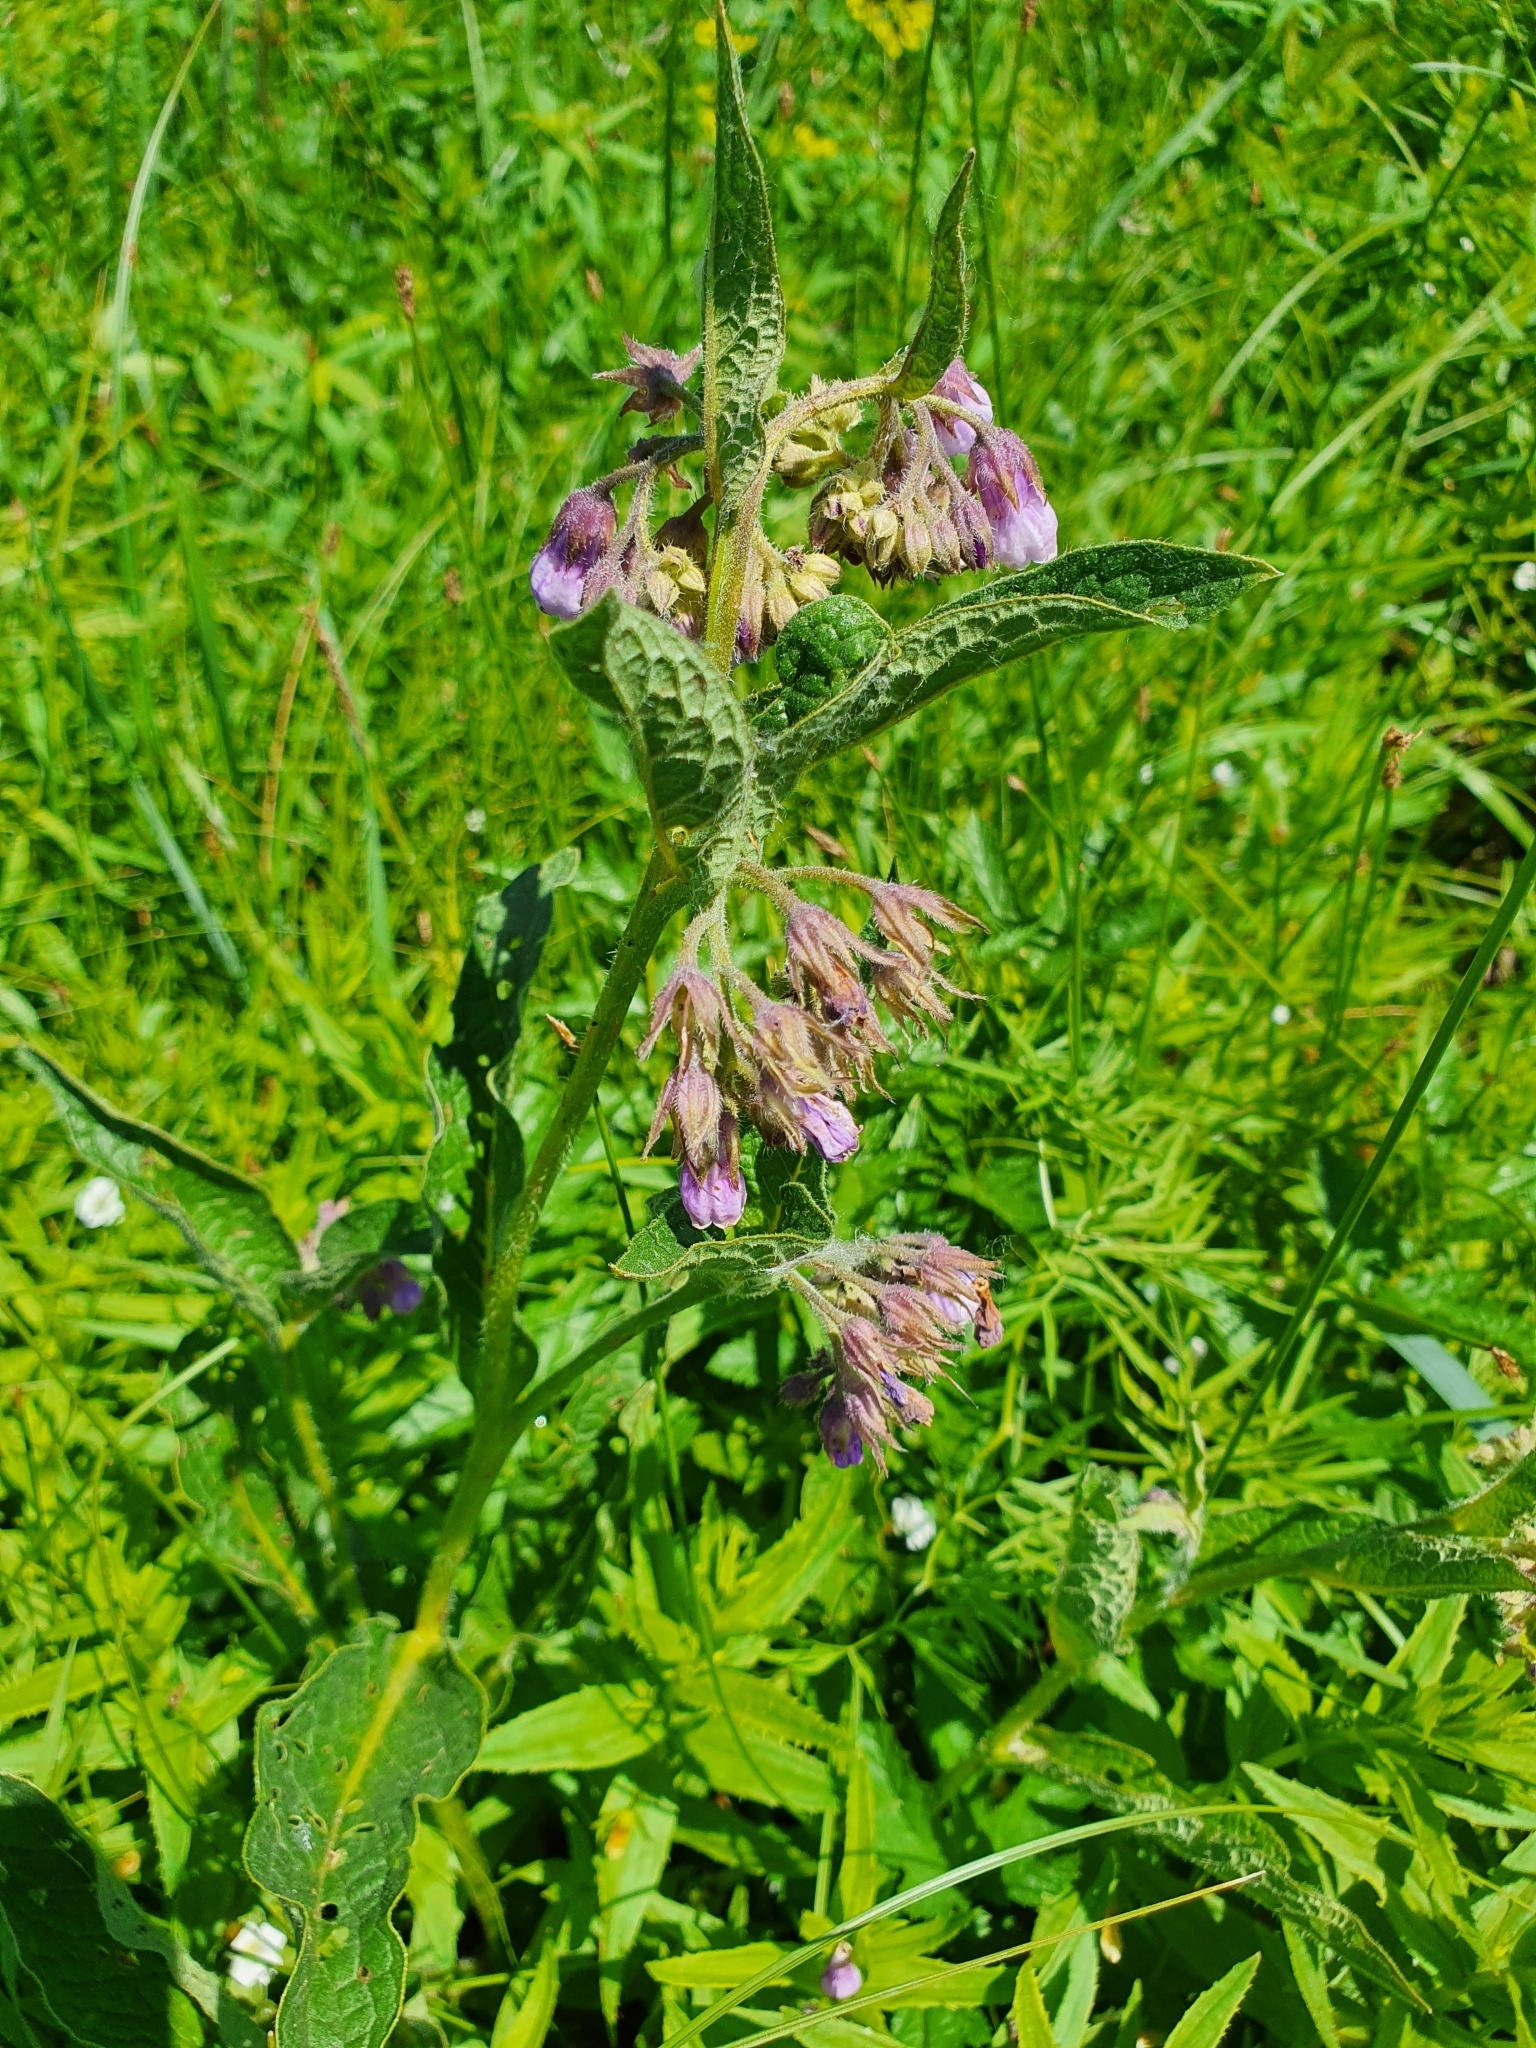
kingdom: Plantae
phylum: Tracheophyta
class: Magnoliopsida
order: Boraginales
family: Boraginaceae
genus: Symphytum
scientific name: Symphytum officinale
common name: Common comfrey
